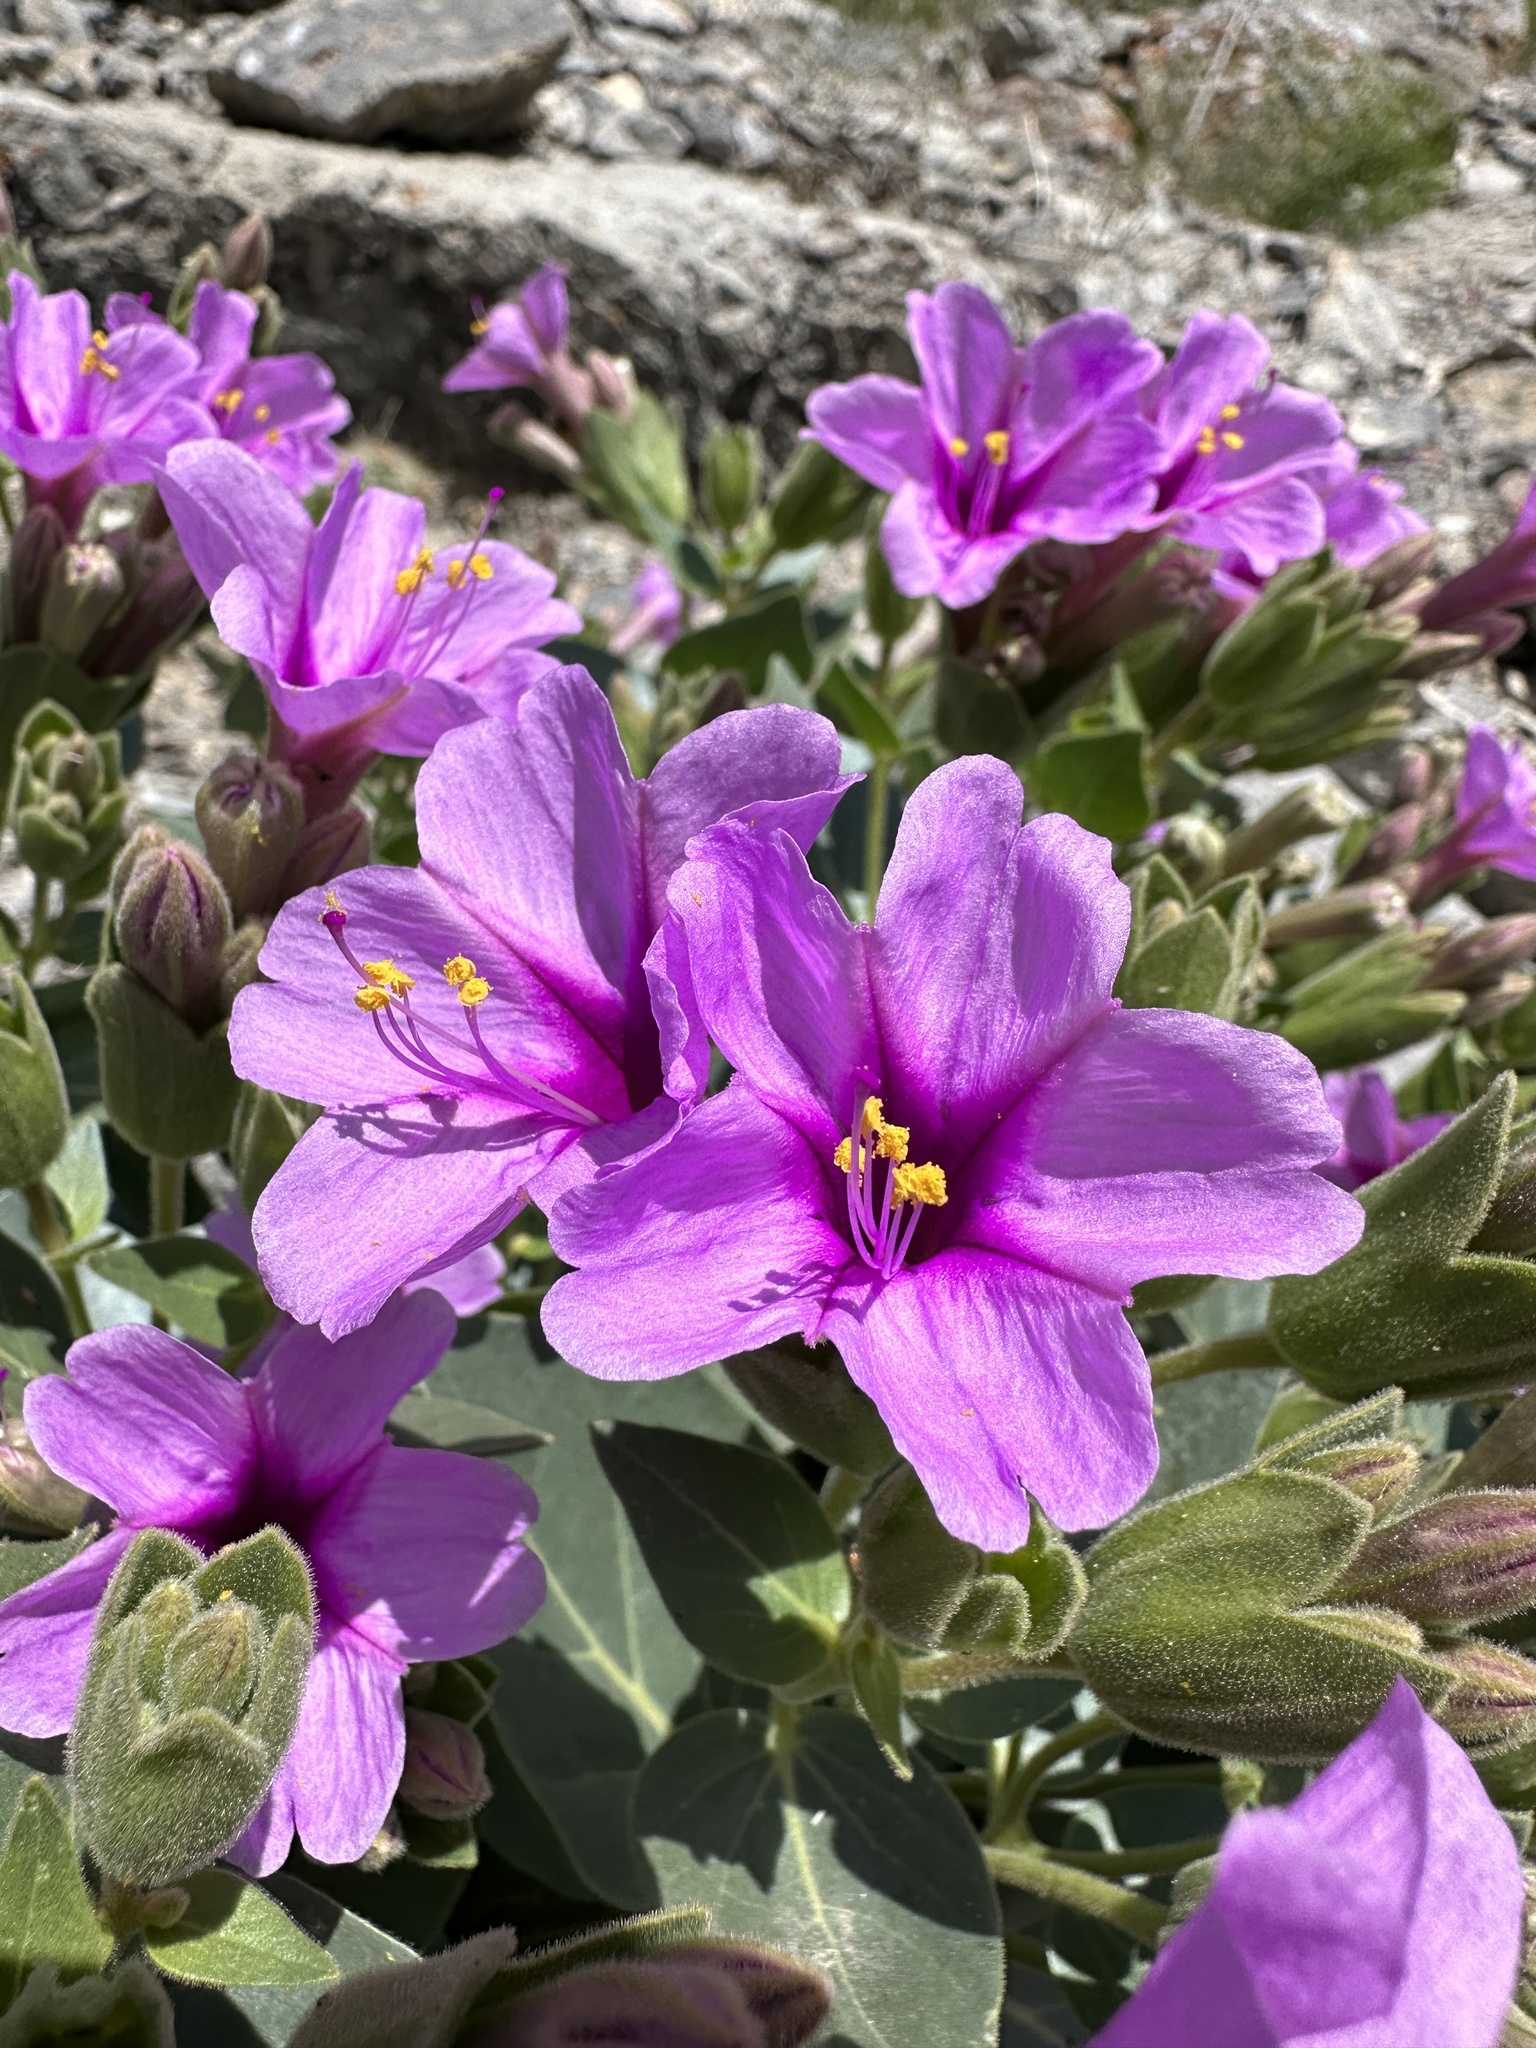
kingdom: Plantae
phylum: Tracheophyta
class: Magnoliopsida
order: Caryophyllales
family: Nyctaginaceae
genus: Mirabilis
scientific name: Mirabilis multiflora
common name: Froebel's four-o'clock
